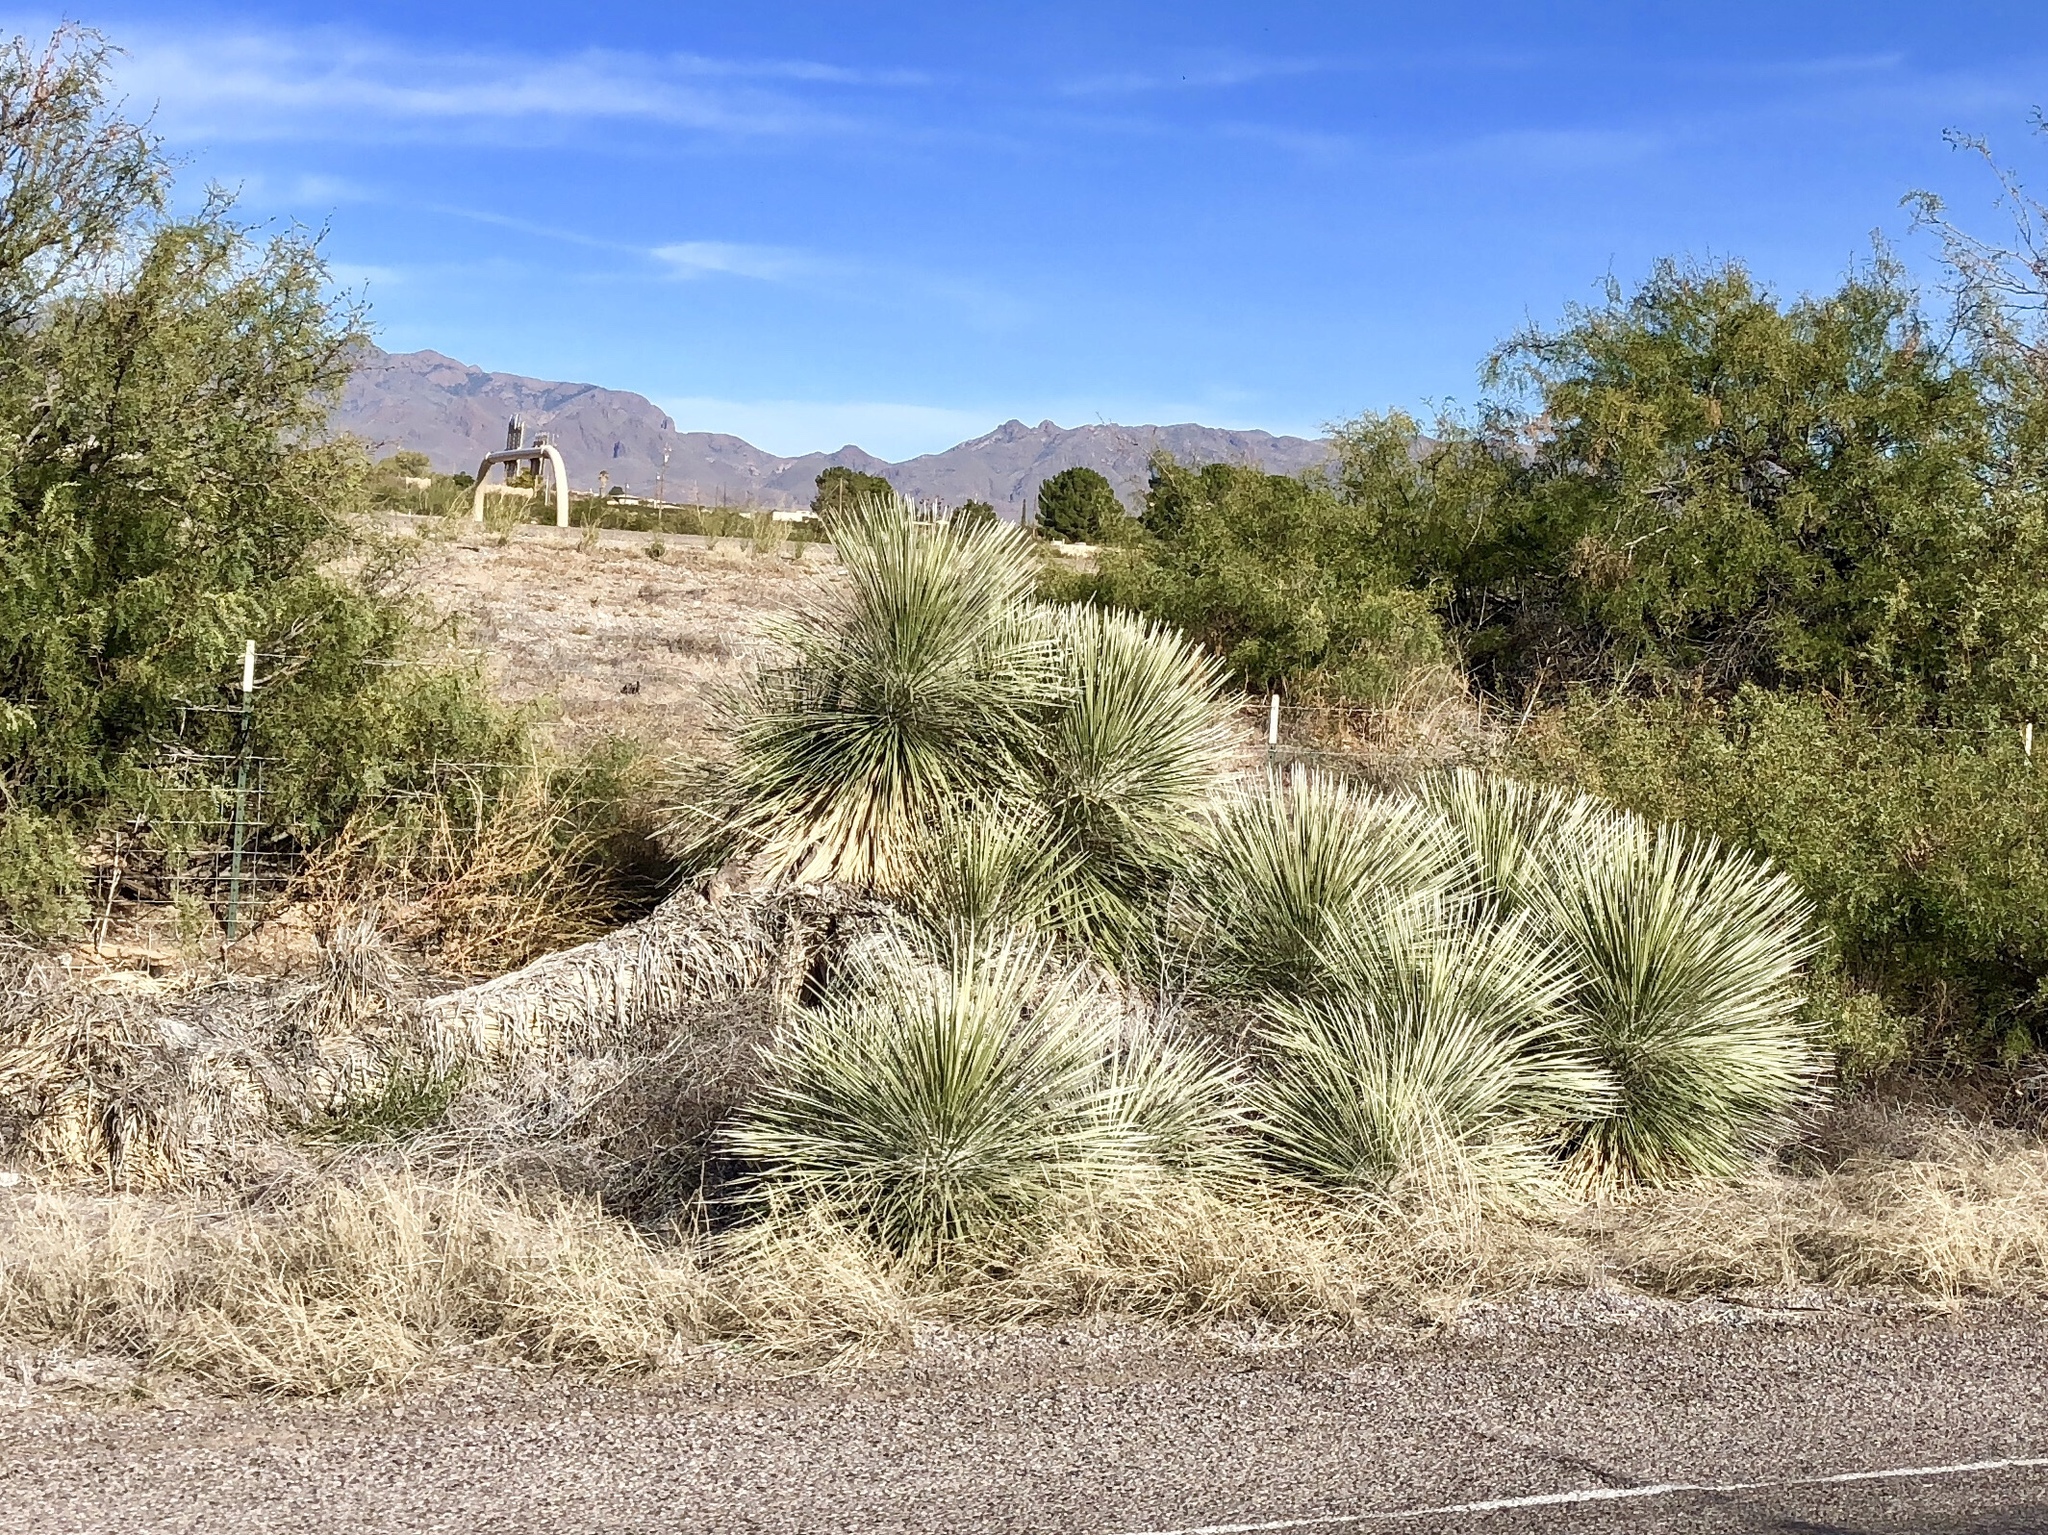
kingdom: Plantae
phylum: Tracheophyta
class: Liliopsida
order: Asparagales
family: Asparagaceae
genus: Yucca
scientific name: Yucca elata
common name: Palmella
